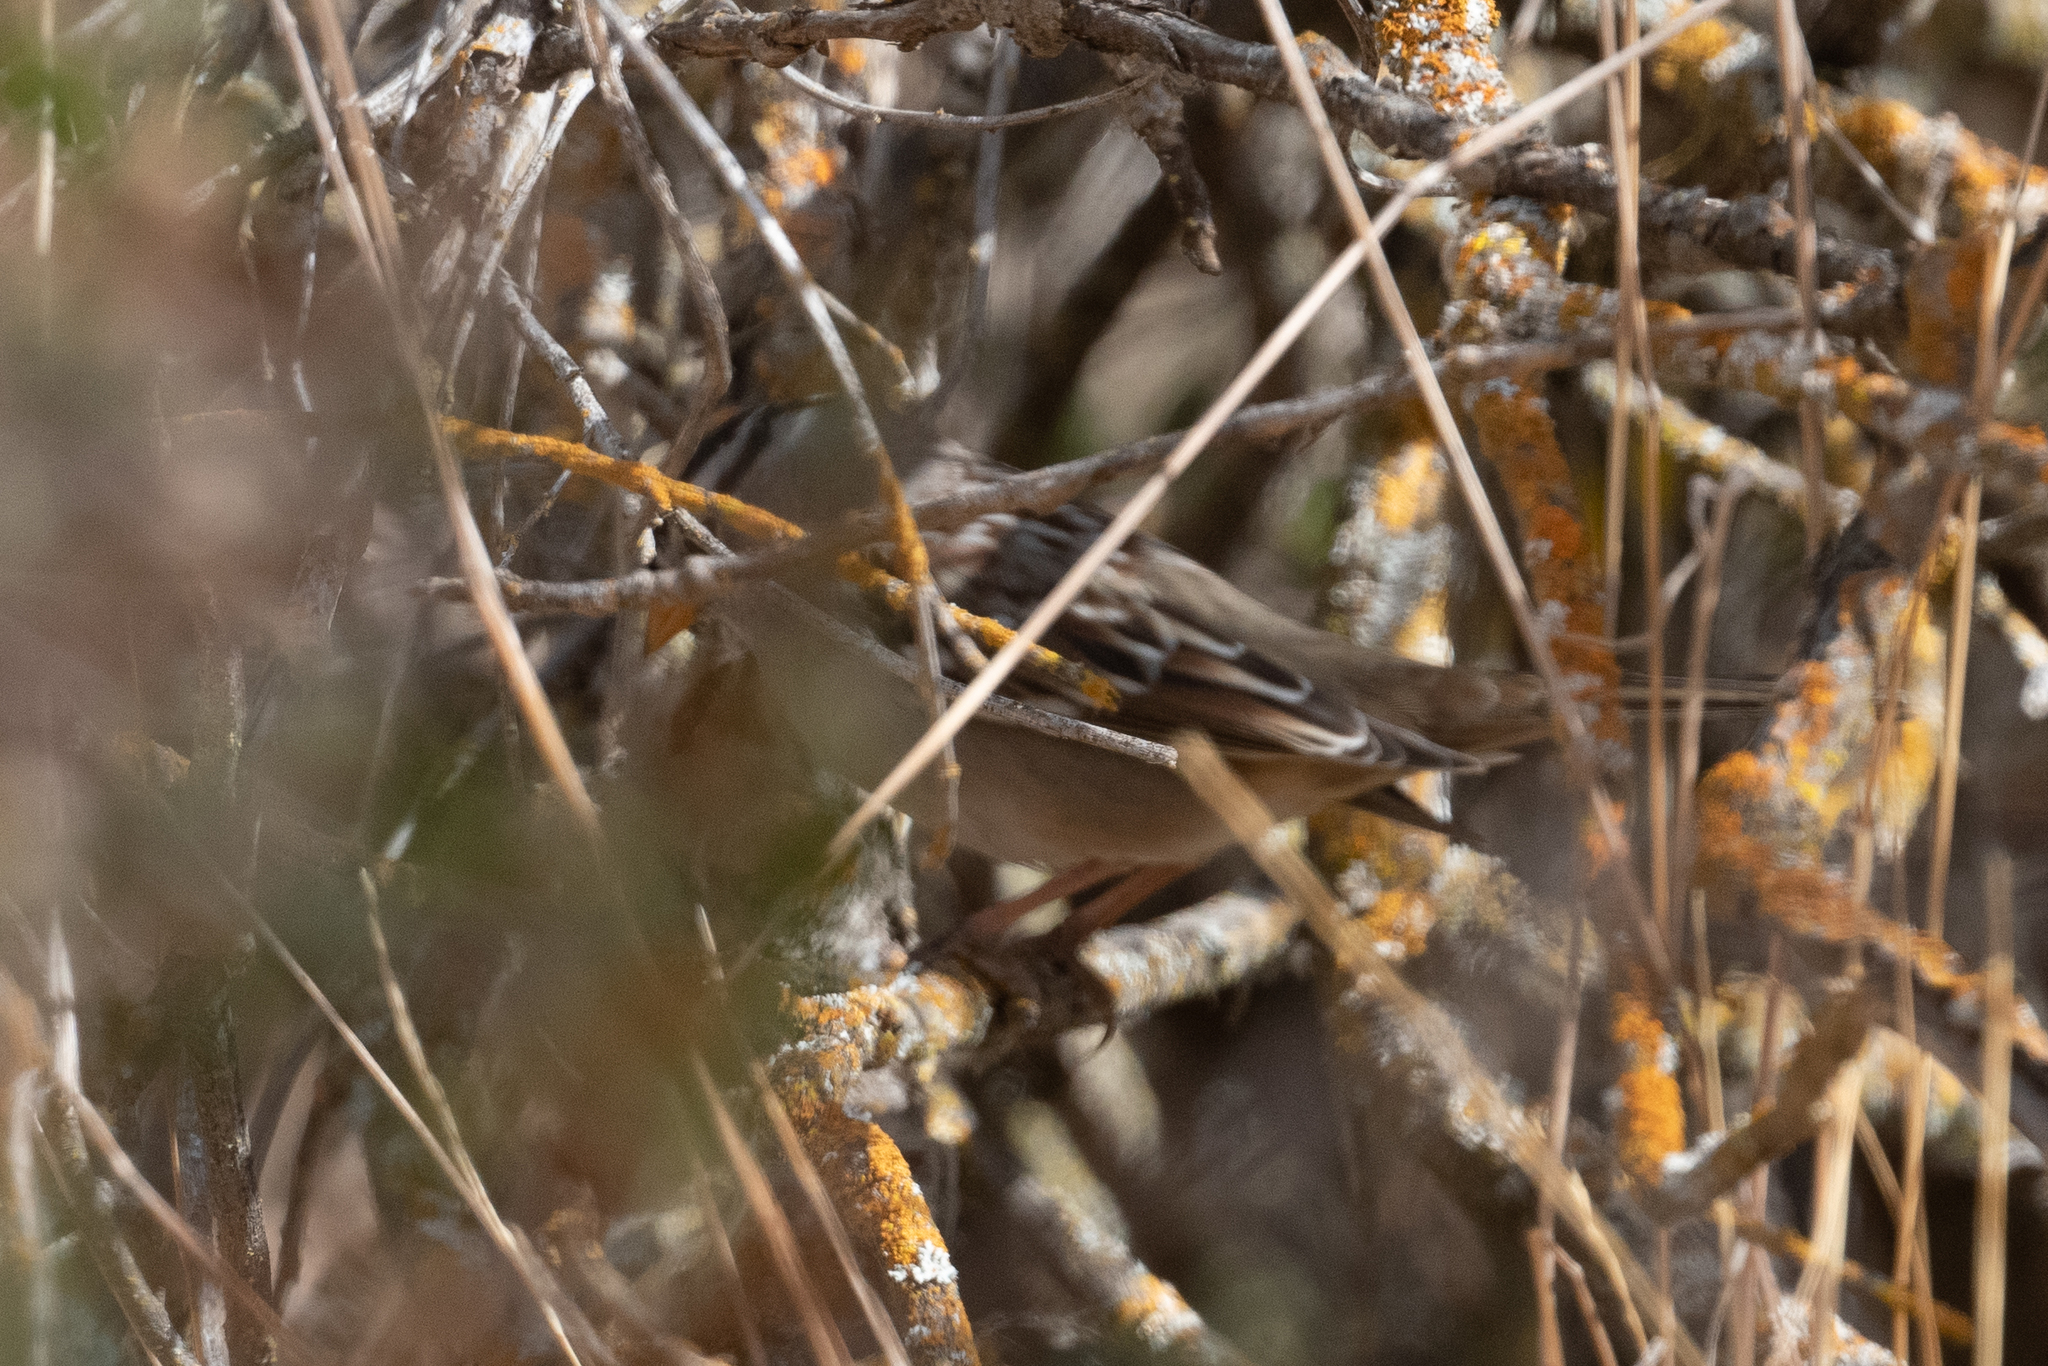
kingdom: Animalia
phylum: Chordata
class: Aves
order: Passeriformes
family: Passerellidae
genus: Zonotrichia
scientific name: Zonotrichia leucophrys
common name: White-crowned sparrow
